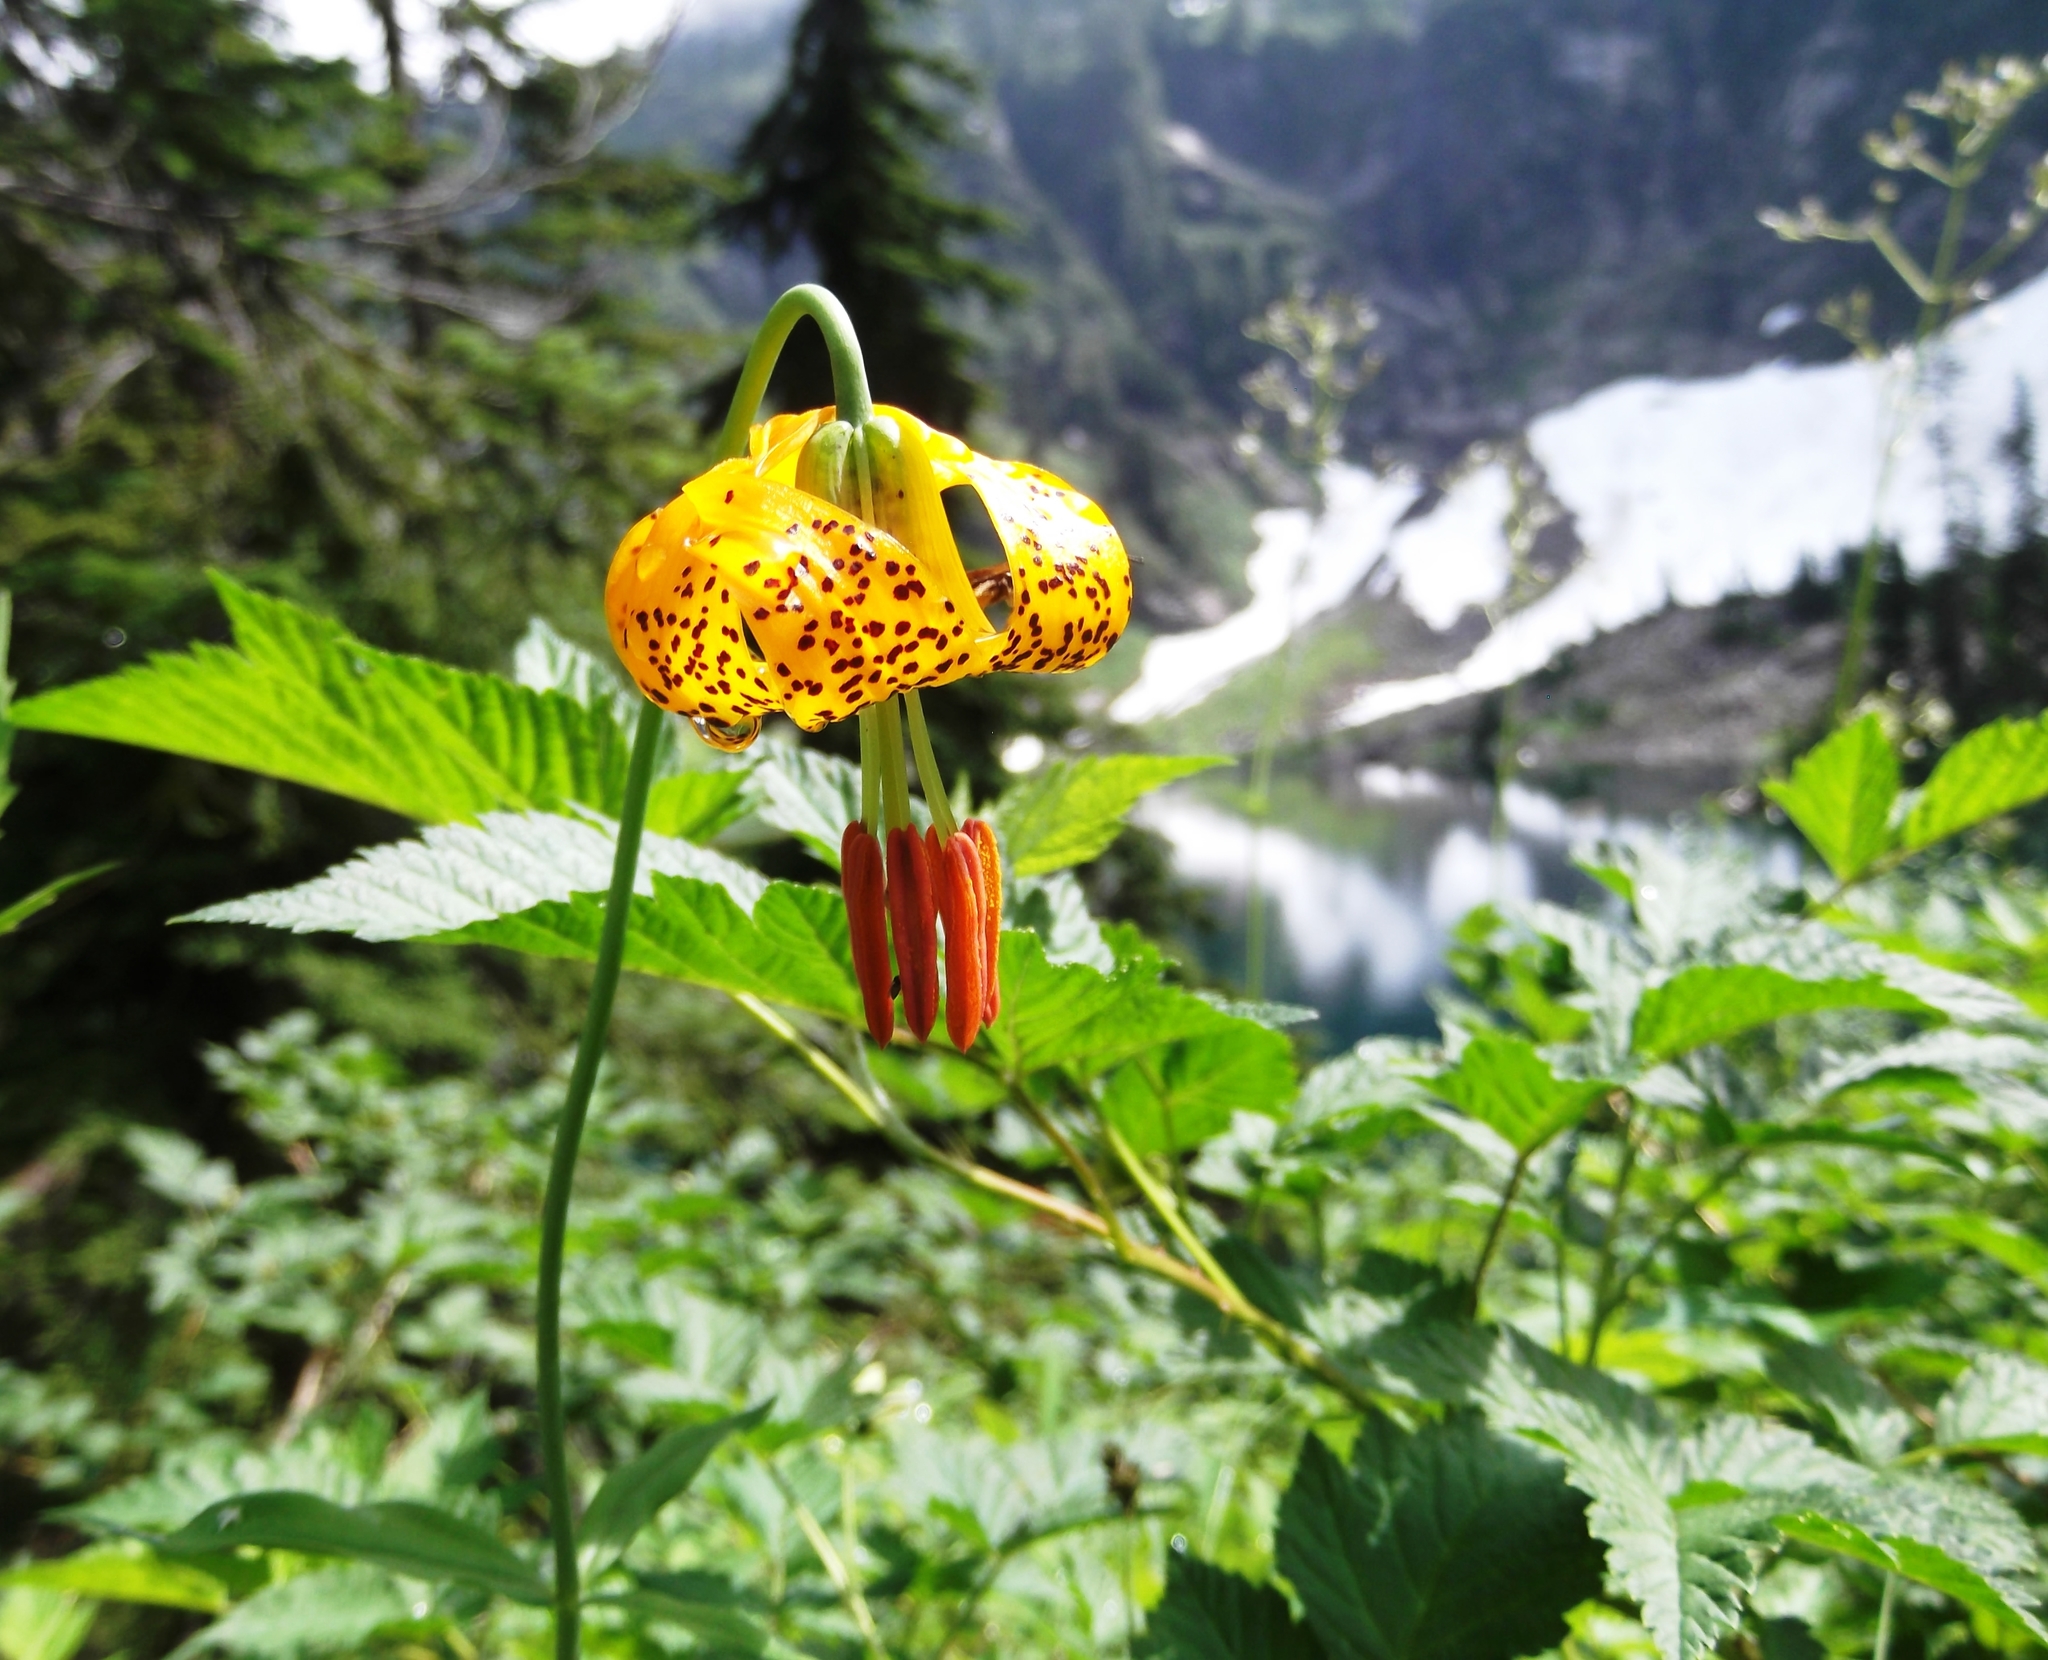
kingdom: Plantae
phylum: Tracheophyta
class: Liliopsida
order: Liliales
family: Liliaceae
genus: Lilium
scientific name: Lilium columbianum
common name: Columbia lily
